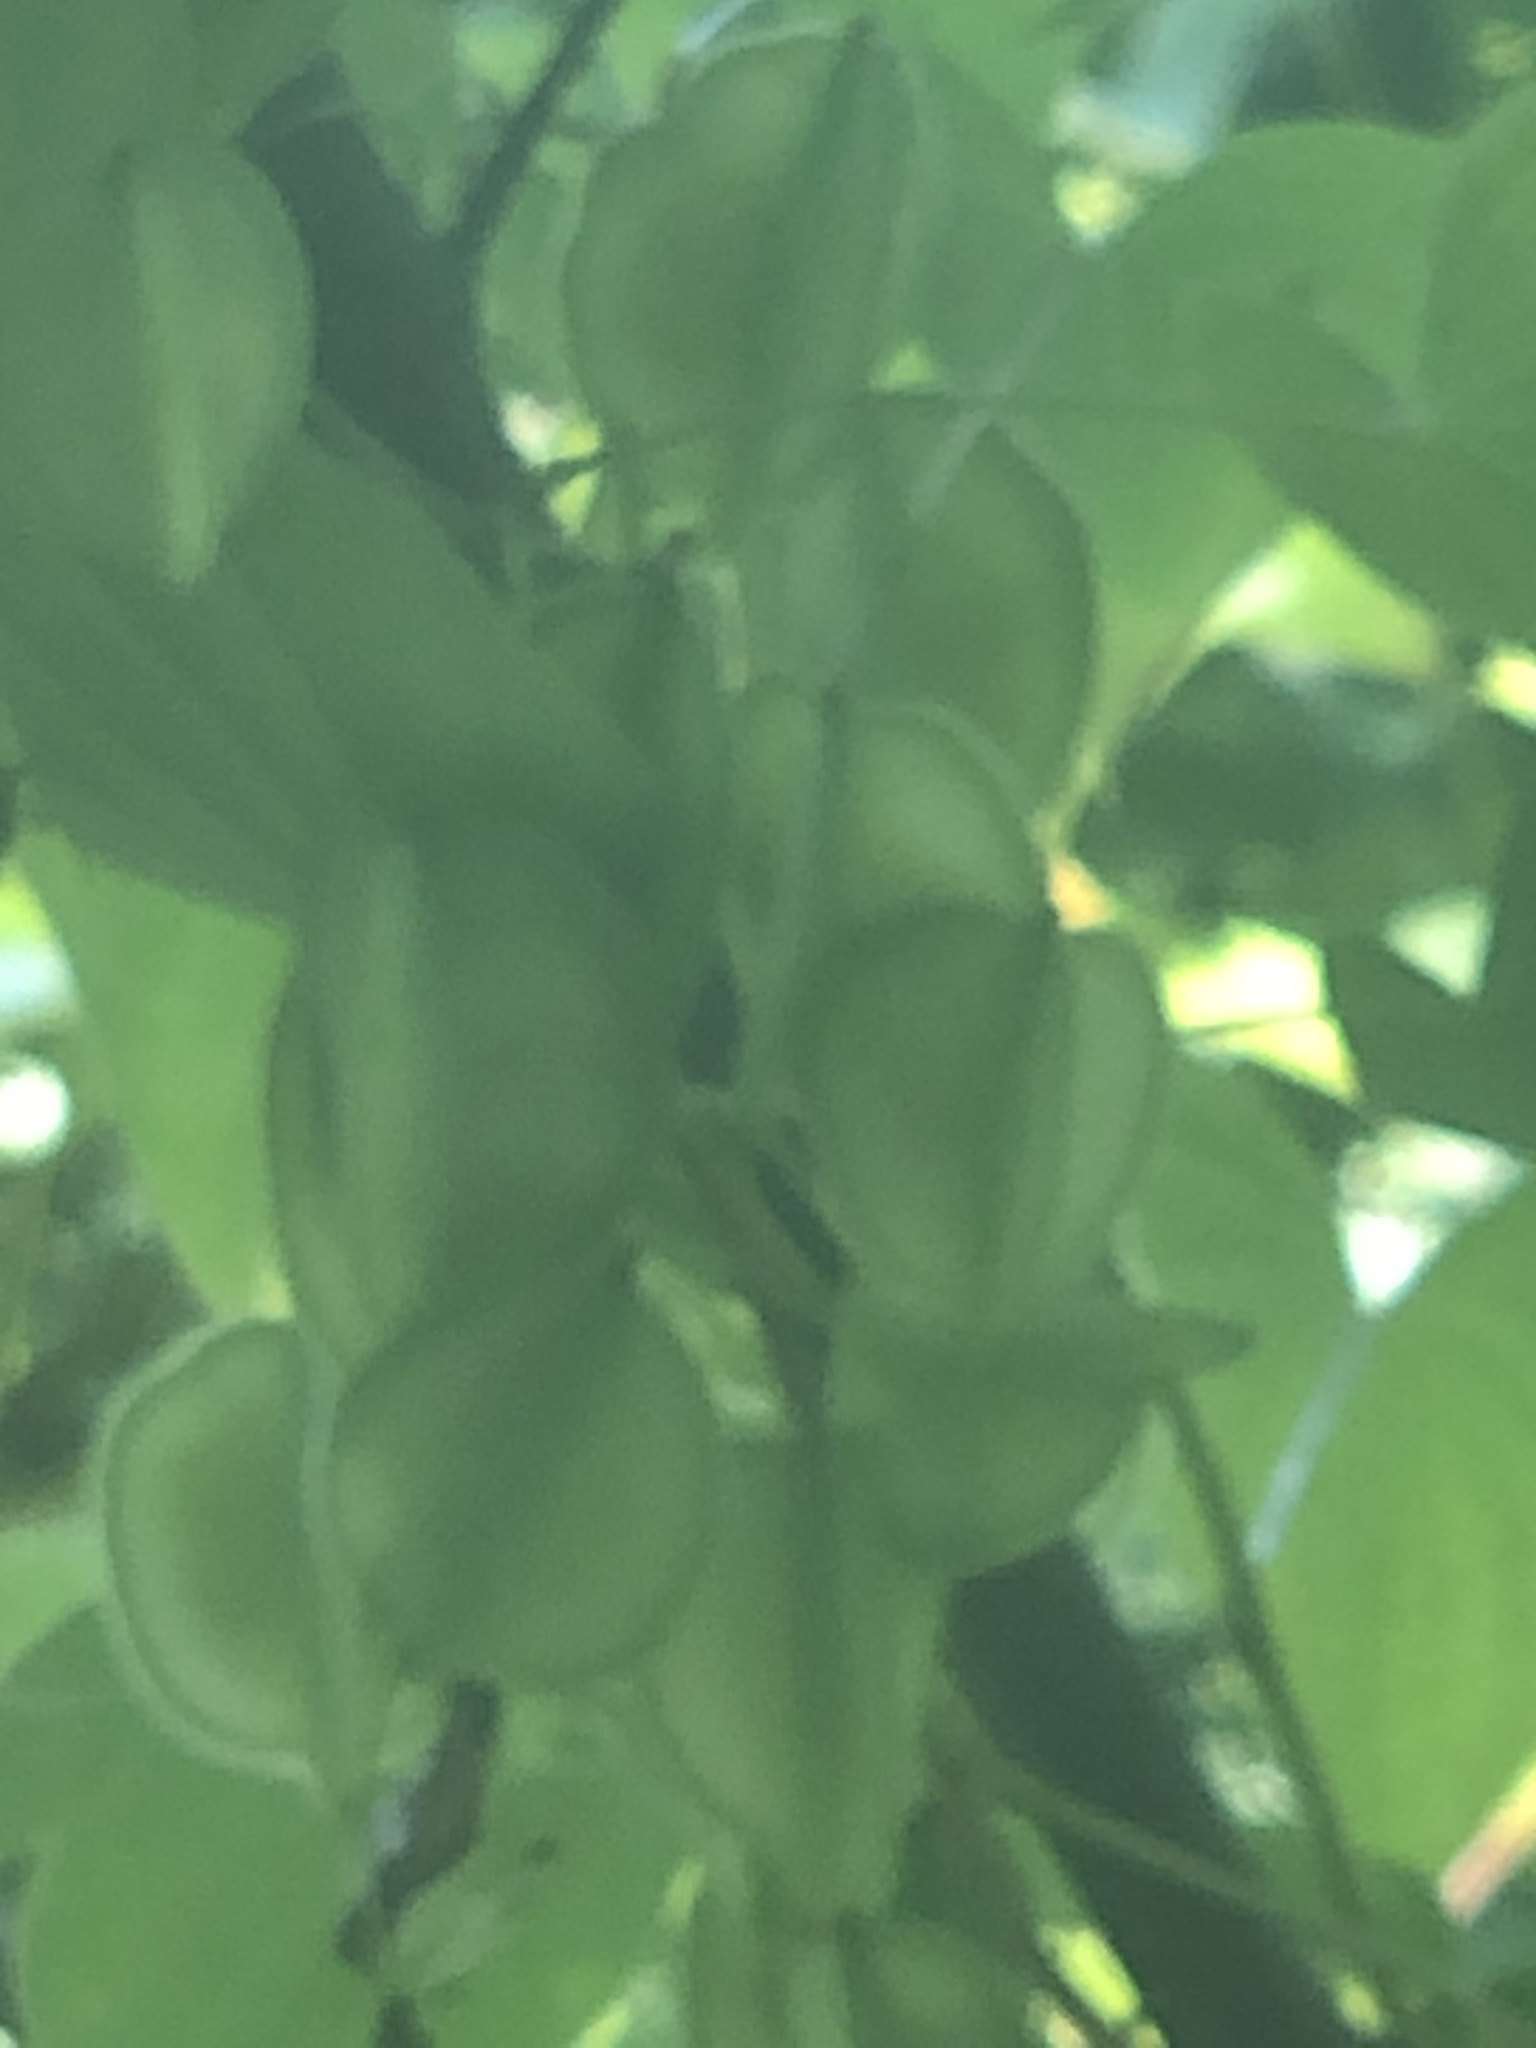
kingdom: Plantae
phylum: Tracheophyta
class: Liliopsida
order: Dioscoreales
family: Dioscoreaceae
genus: Dioscorea
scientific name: Dioscorea villosa
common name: Wild yam
